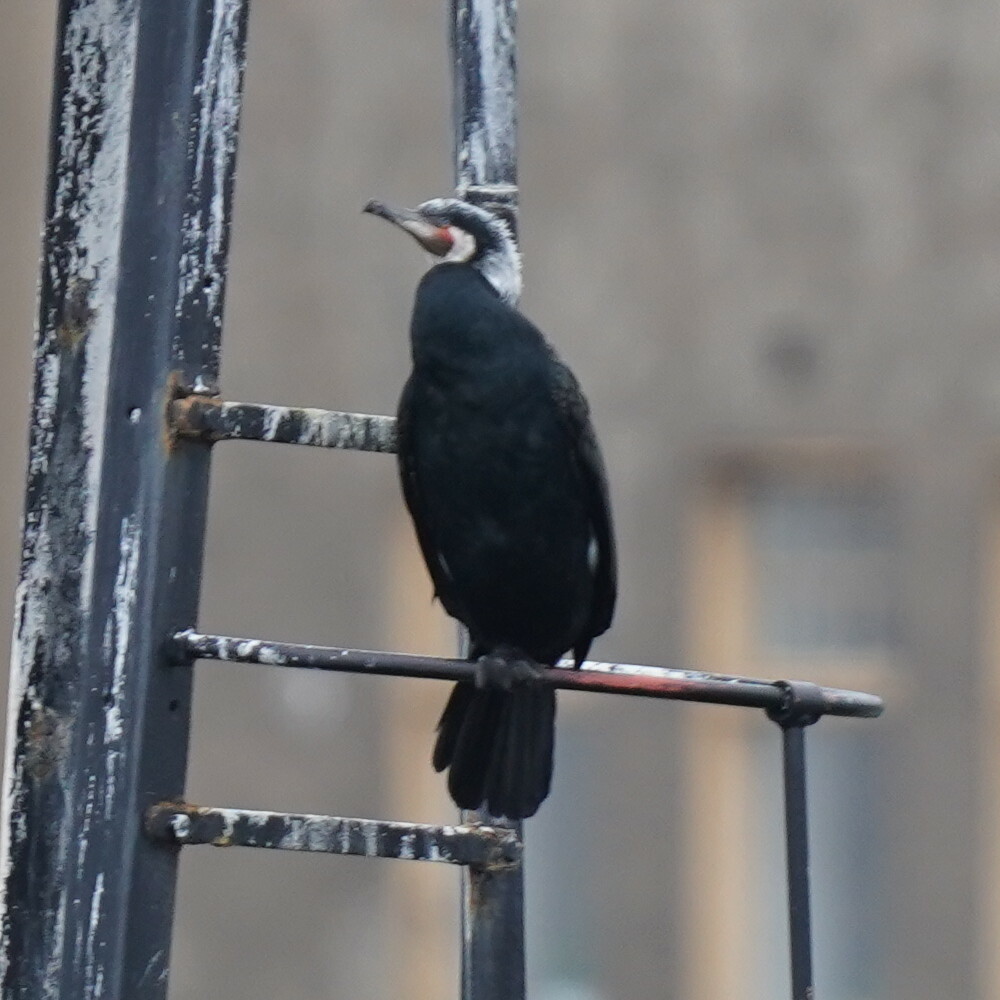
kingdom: Animalia
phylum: Chordata
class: Aves
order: Suliformes
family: Phalacrocoracidae
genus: Phalacrocorax
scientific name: Phalacrocorax carbo
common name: Great cormorant
